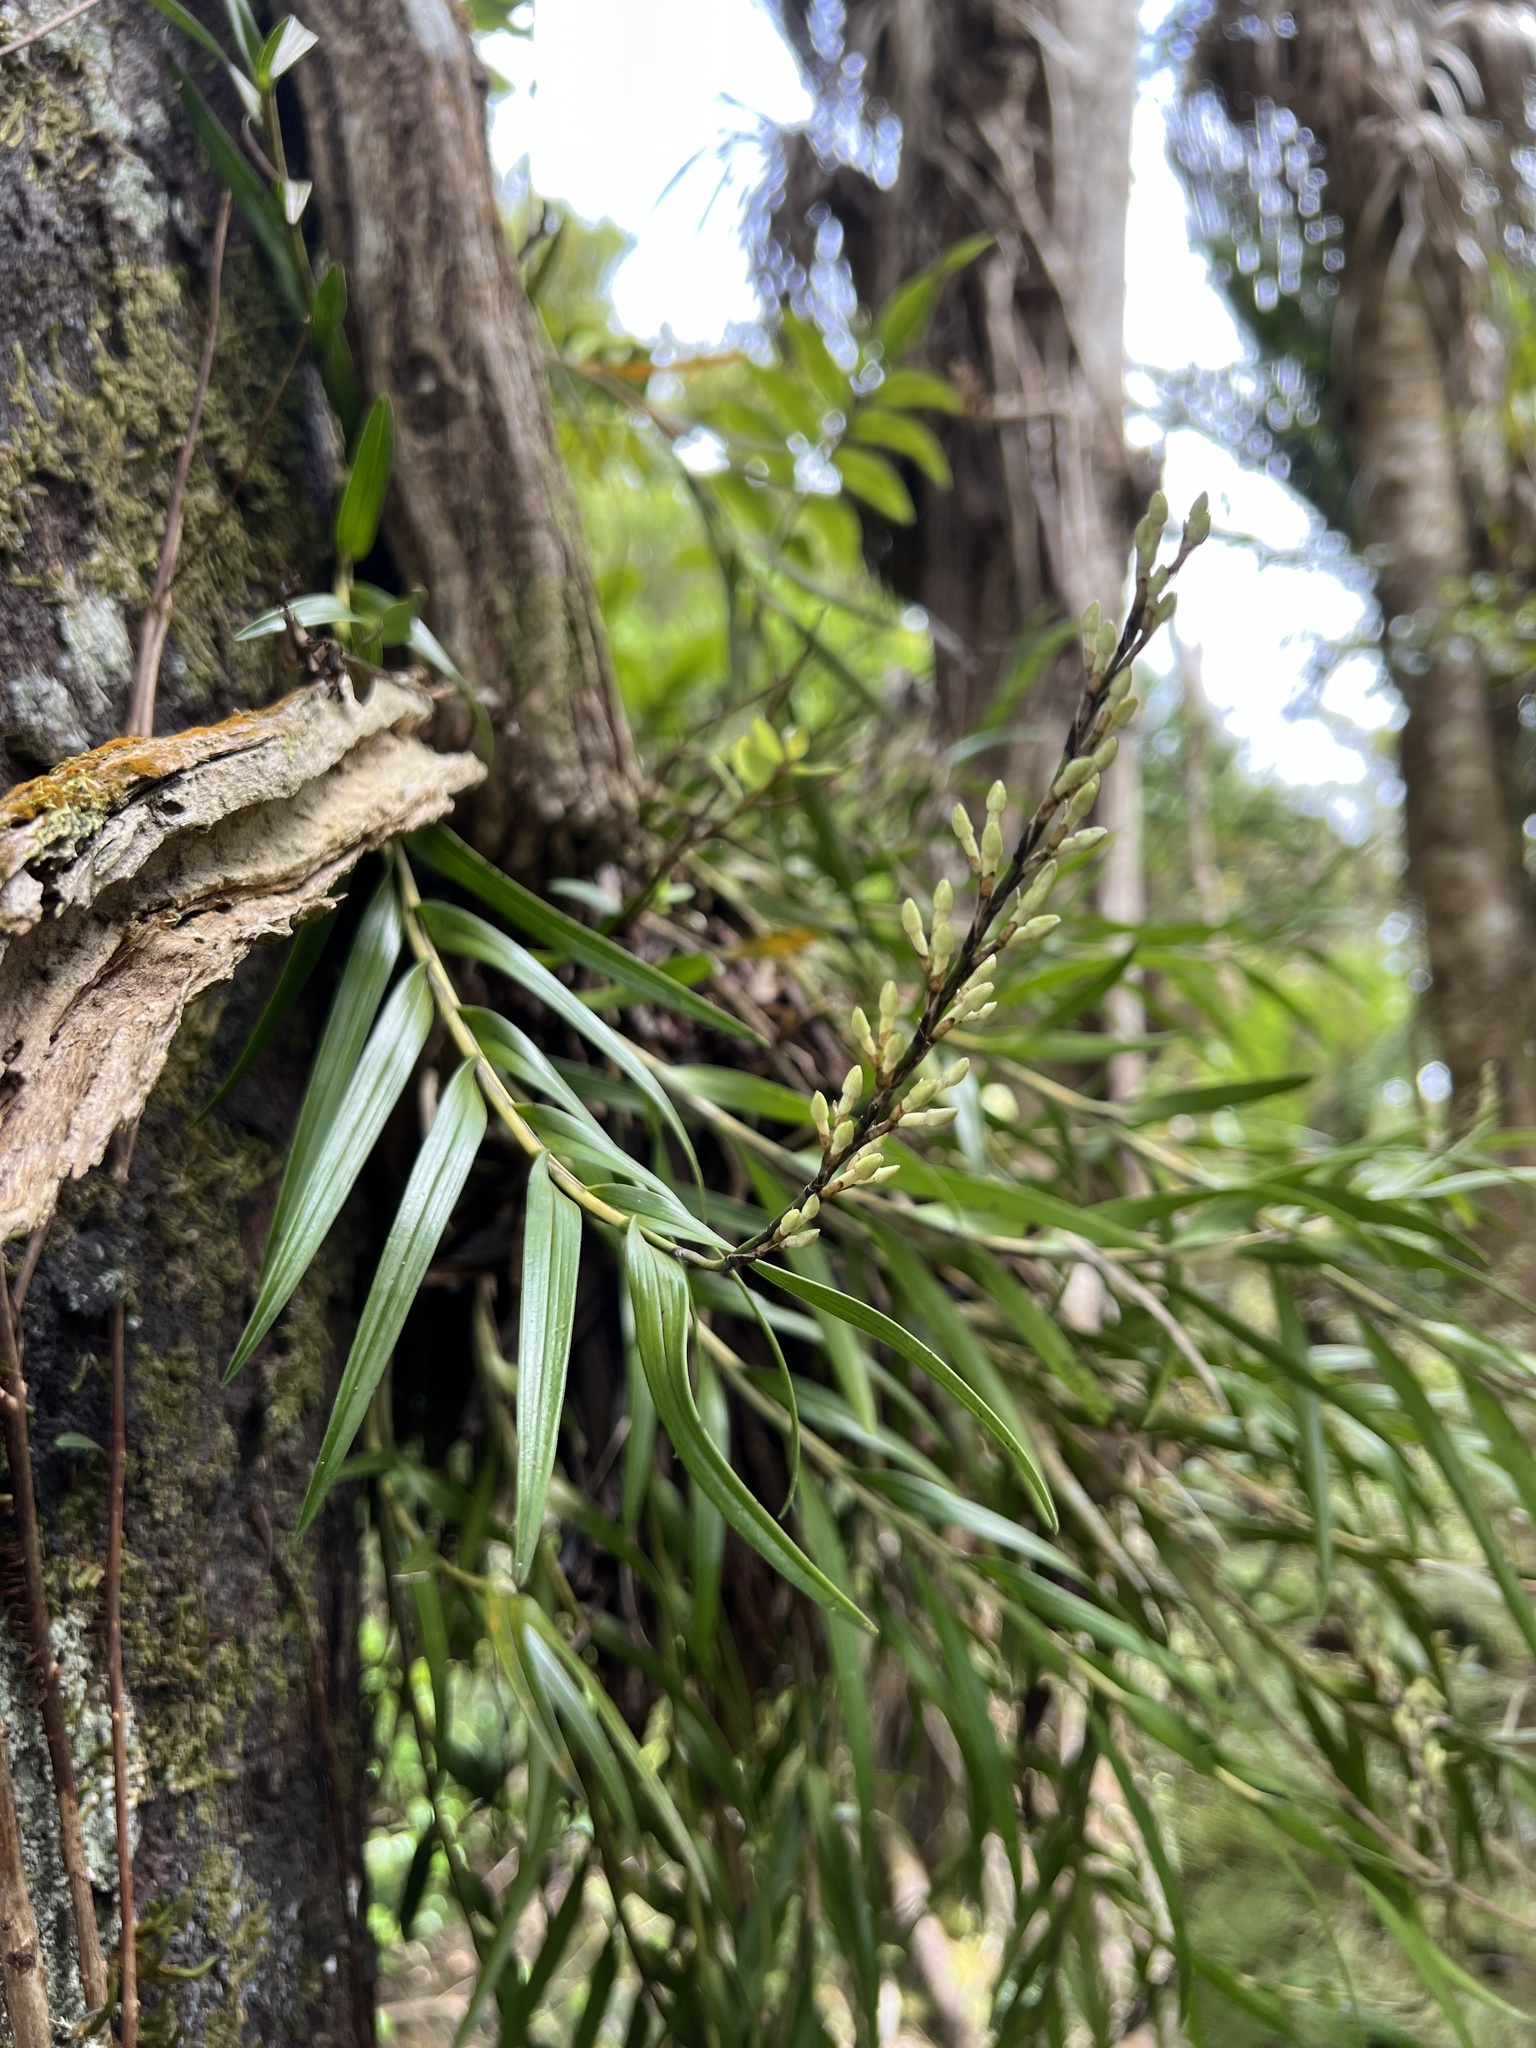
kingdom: Plantae
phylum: Tracheophyta
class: Liliopsida
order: Asparagales
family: Orchidaceae
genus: Earina
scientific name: Earina autumnalis
